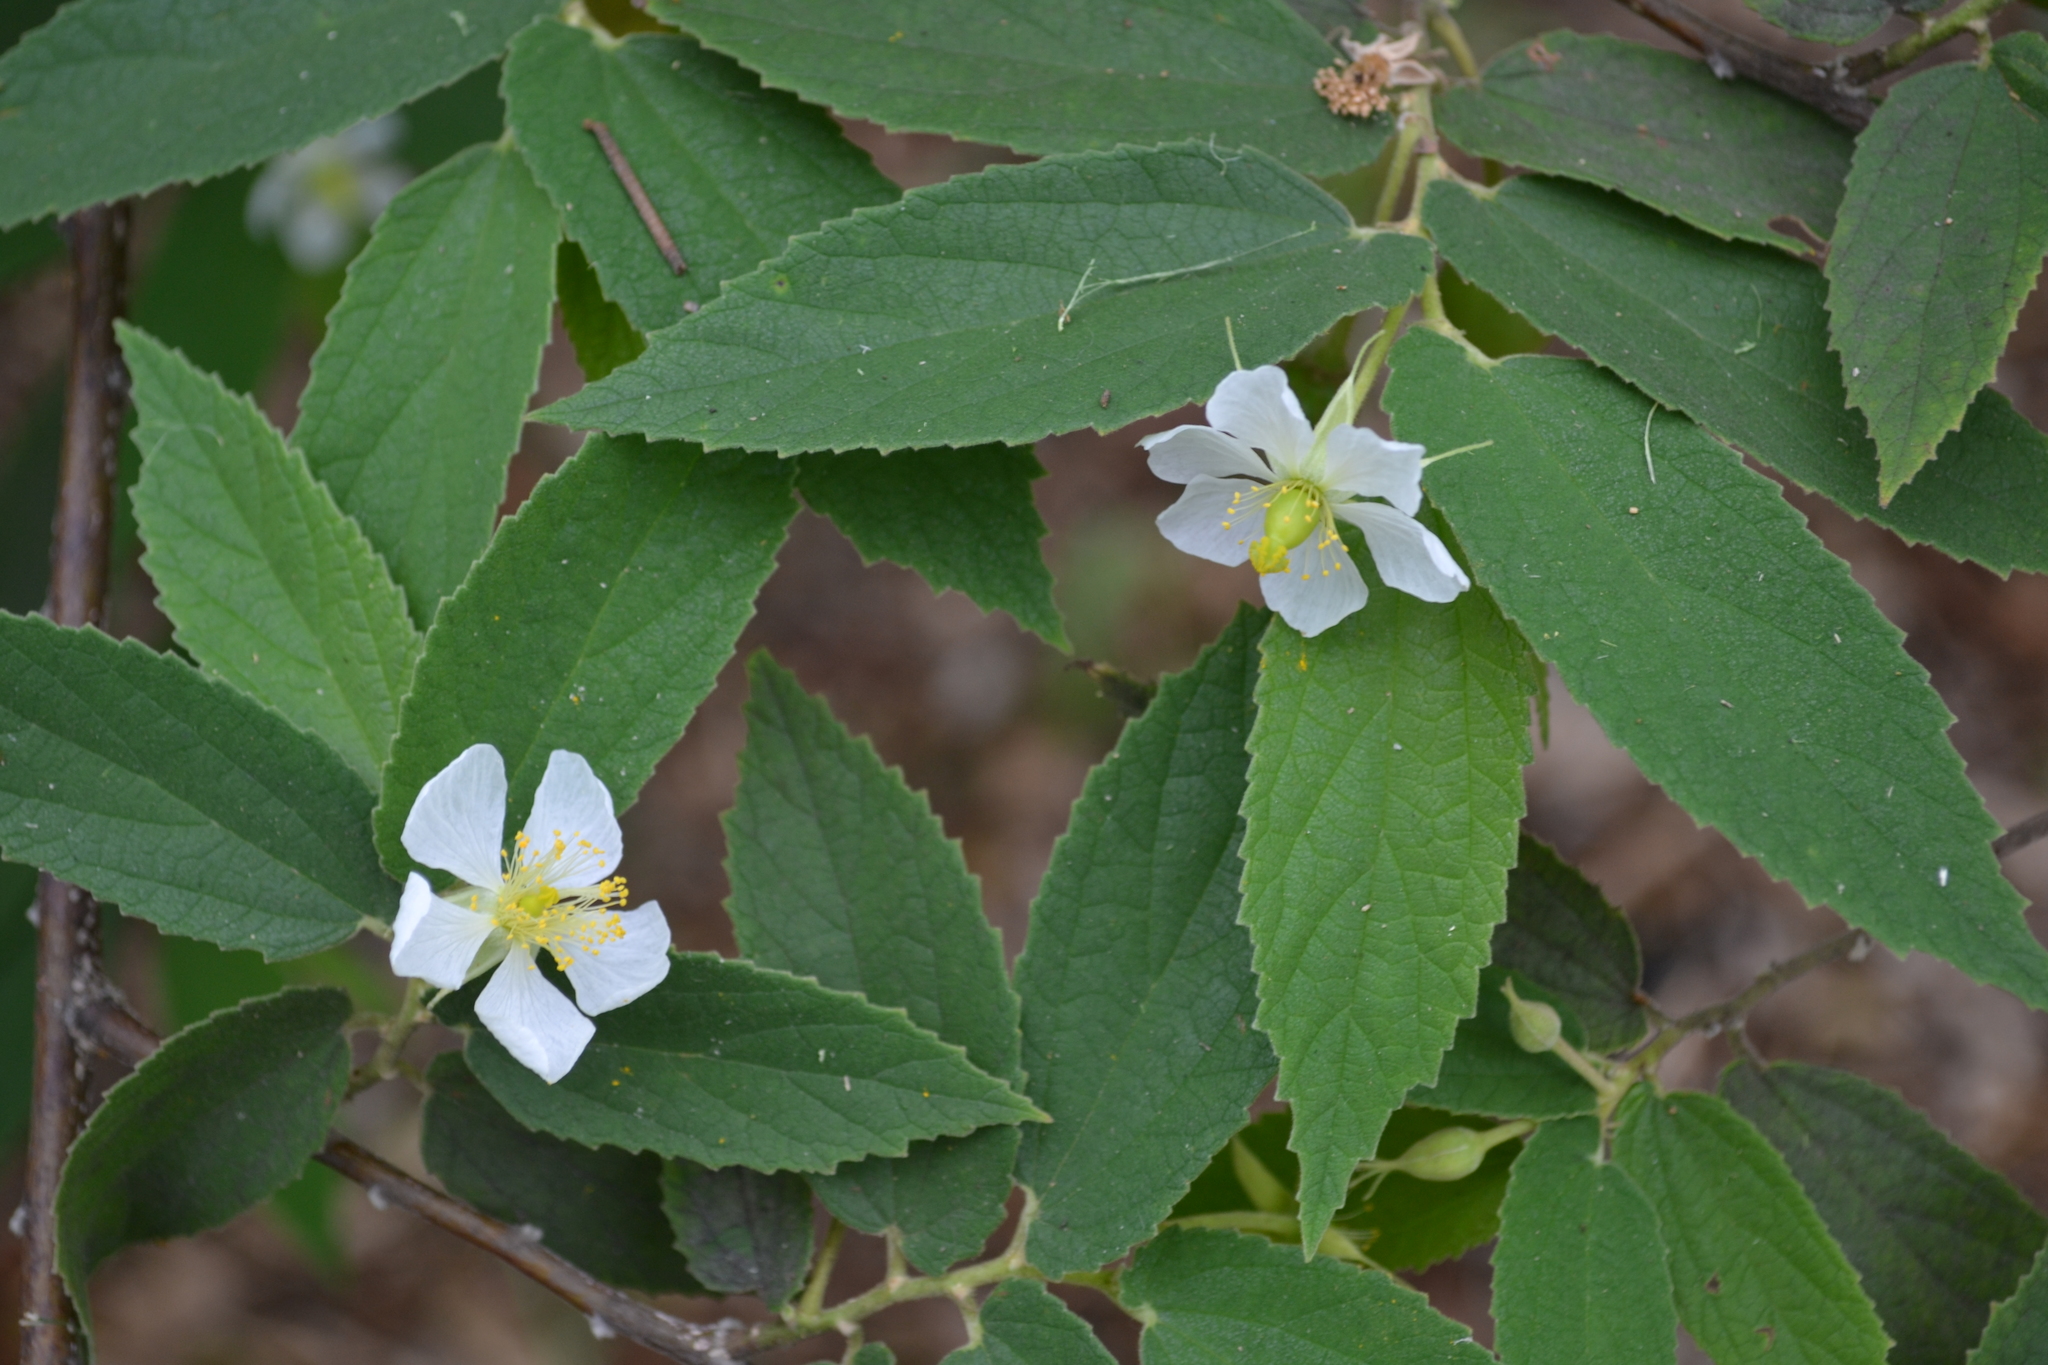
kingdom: Plantae
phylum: Tracheophyta
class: Magnoliopsida
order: Malvales
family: Muntingiaceae
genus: Muntingia
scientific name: Muntingia calabura
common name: Strawberrytree
